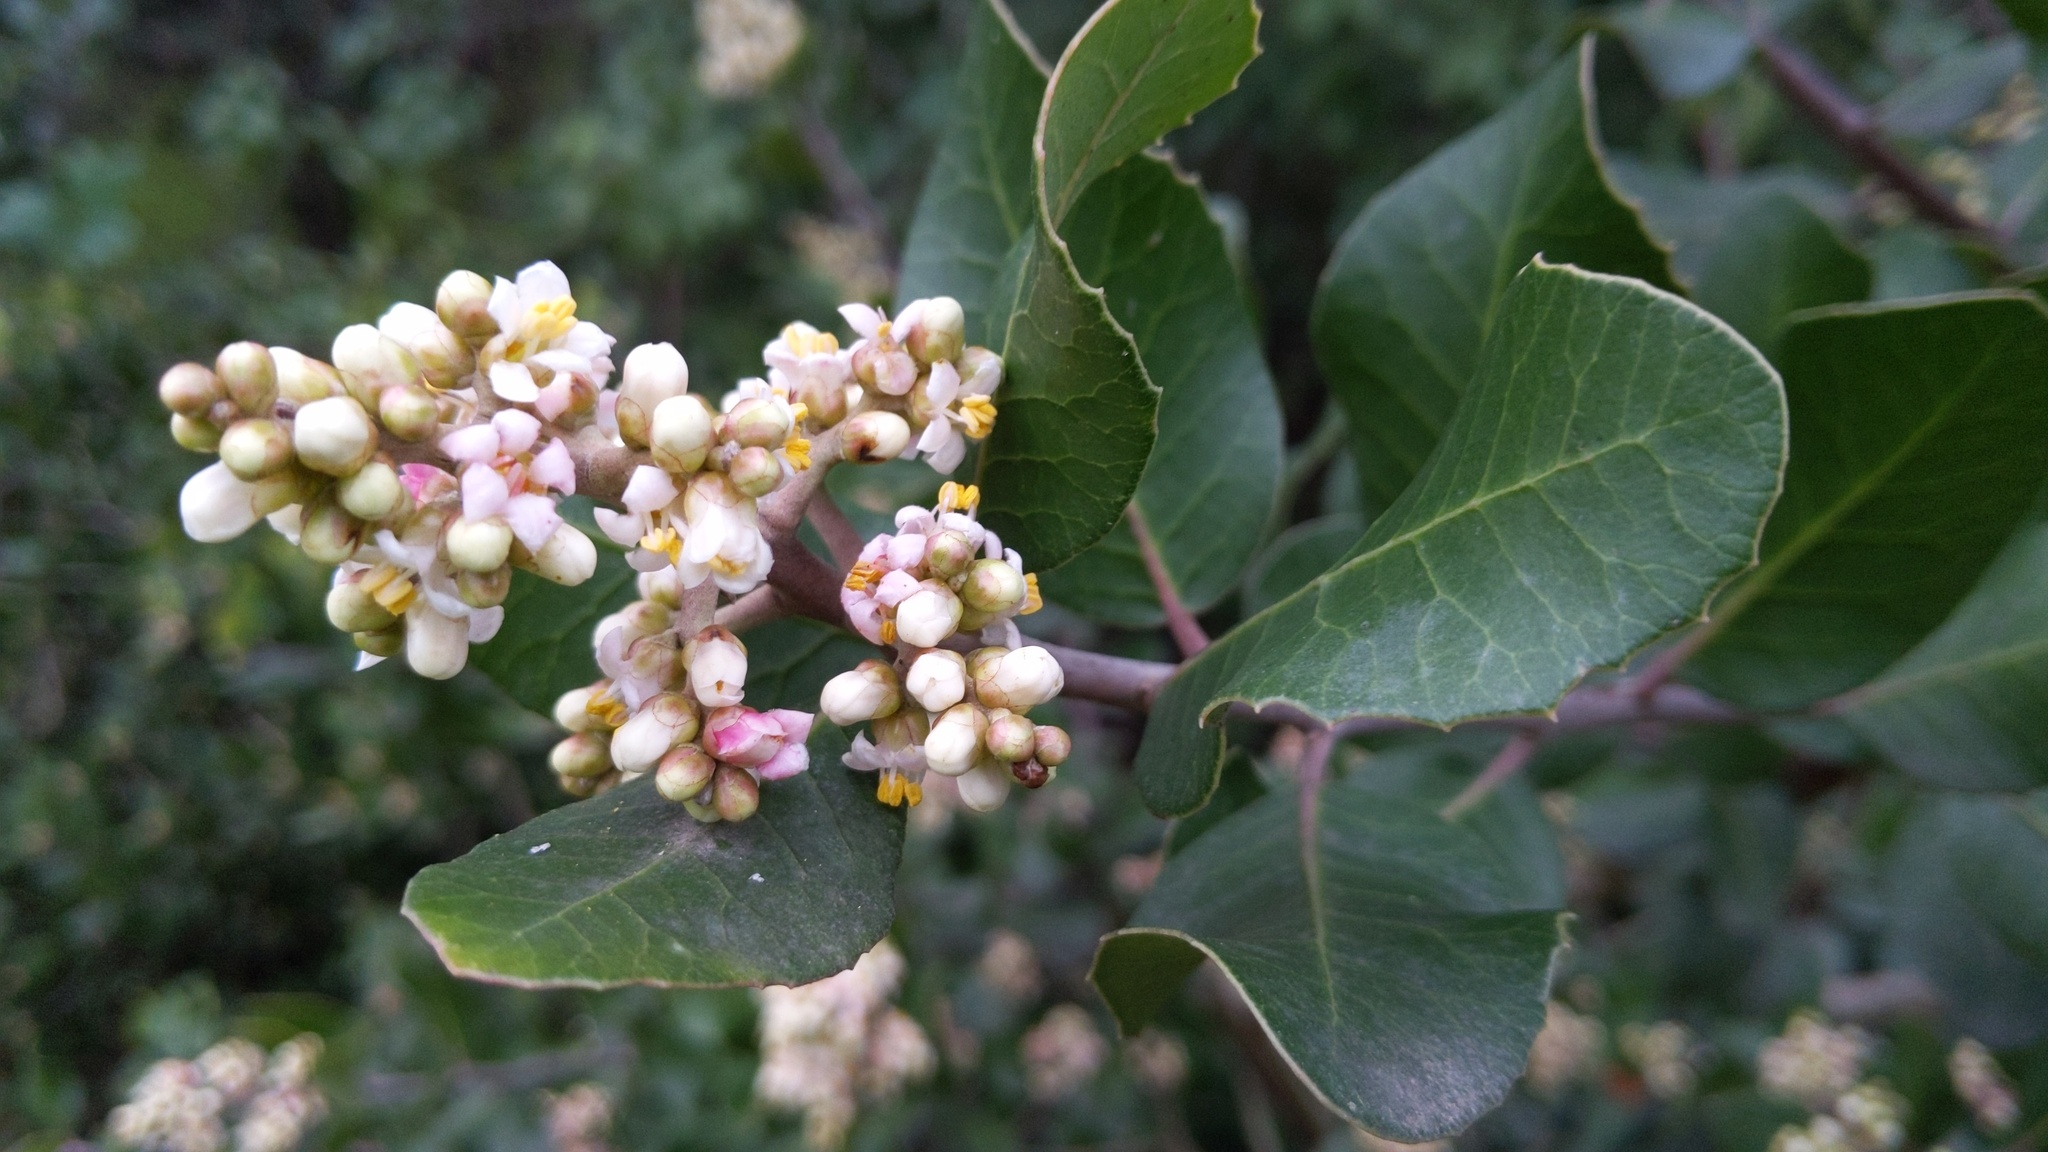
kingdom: Plantae
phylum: Tracheophyta
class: Magnoliopsida
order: Sapindales
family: Anacardiaceae
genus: Rhus
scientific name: Rhus integrifolia
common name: Lemonade sumac
